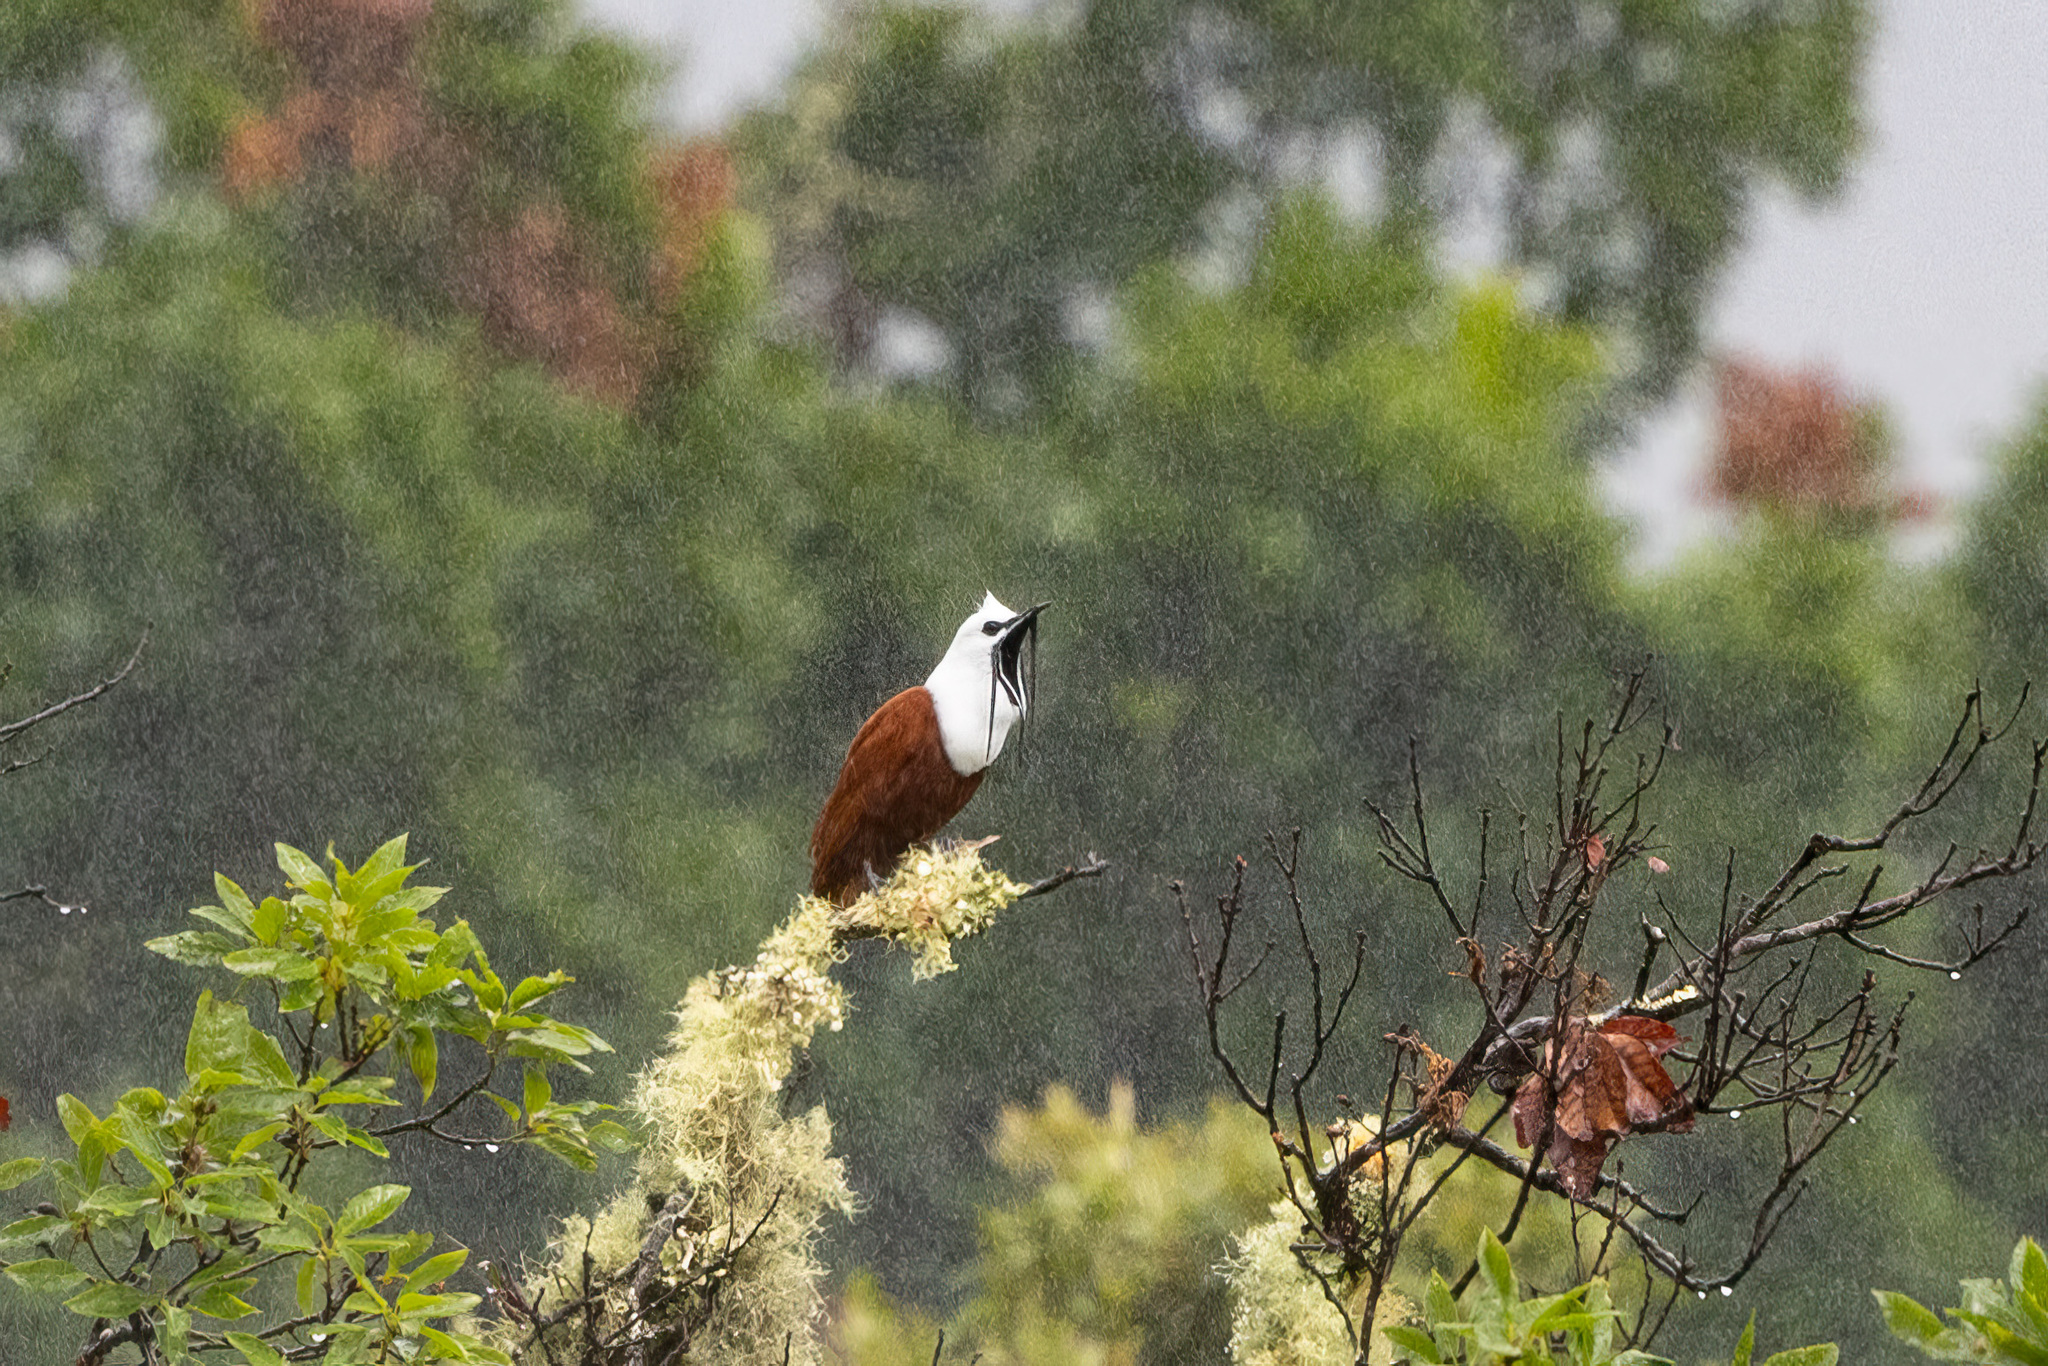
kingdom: Animalia
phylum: Chordata
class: Aves
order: Passeriformes
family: Cotingidae
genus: Procnias
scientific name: Procnias tricarunculatus
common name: Three-wattled bellbird
